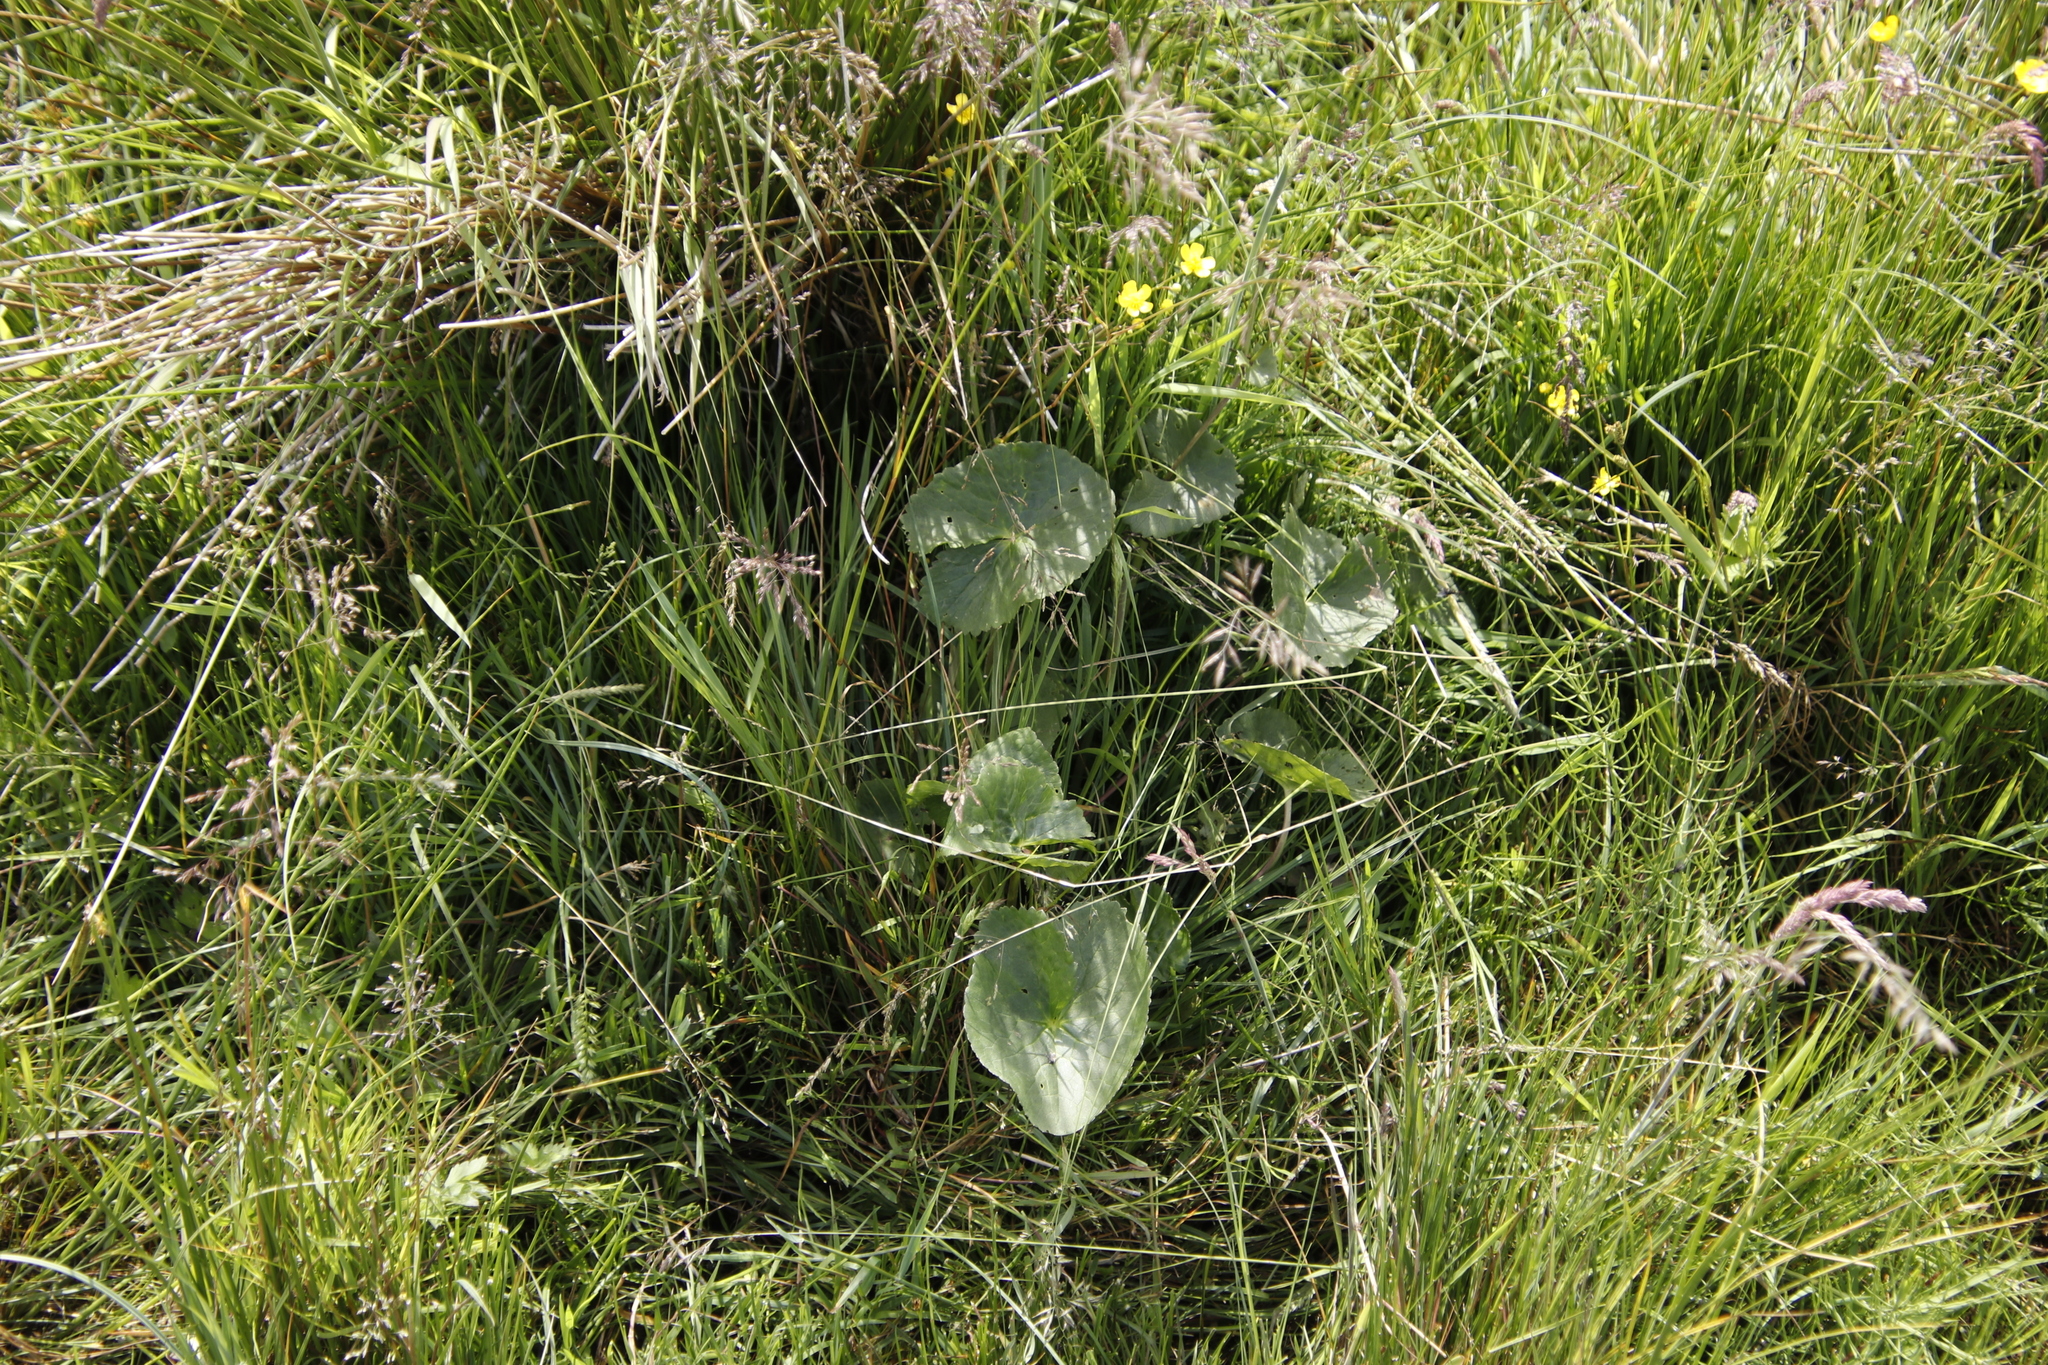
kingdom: Plantae
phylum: Tracheophyta
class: Magnoliopsida
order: Ranunculales
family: Ranunculaceae
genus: Caltha
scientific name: Caltha palustris
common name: Marsh marigold
